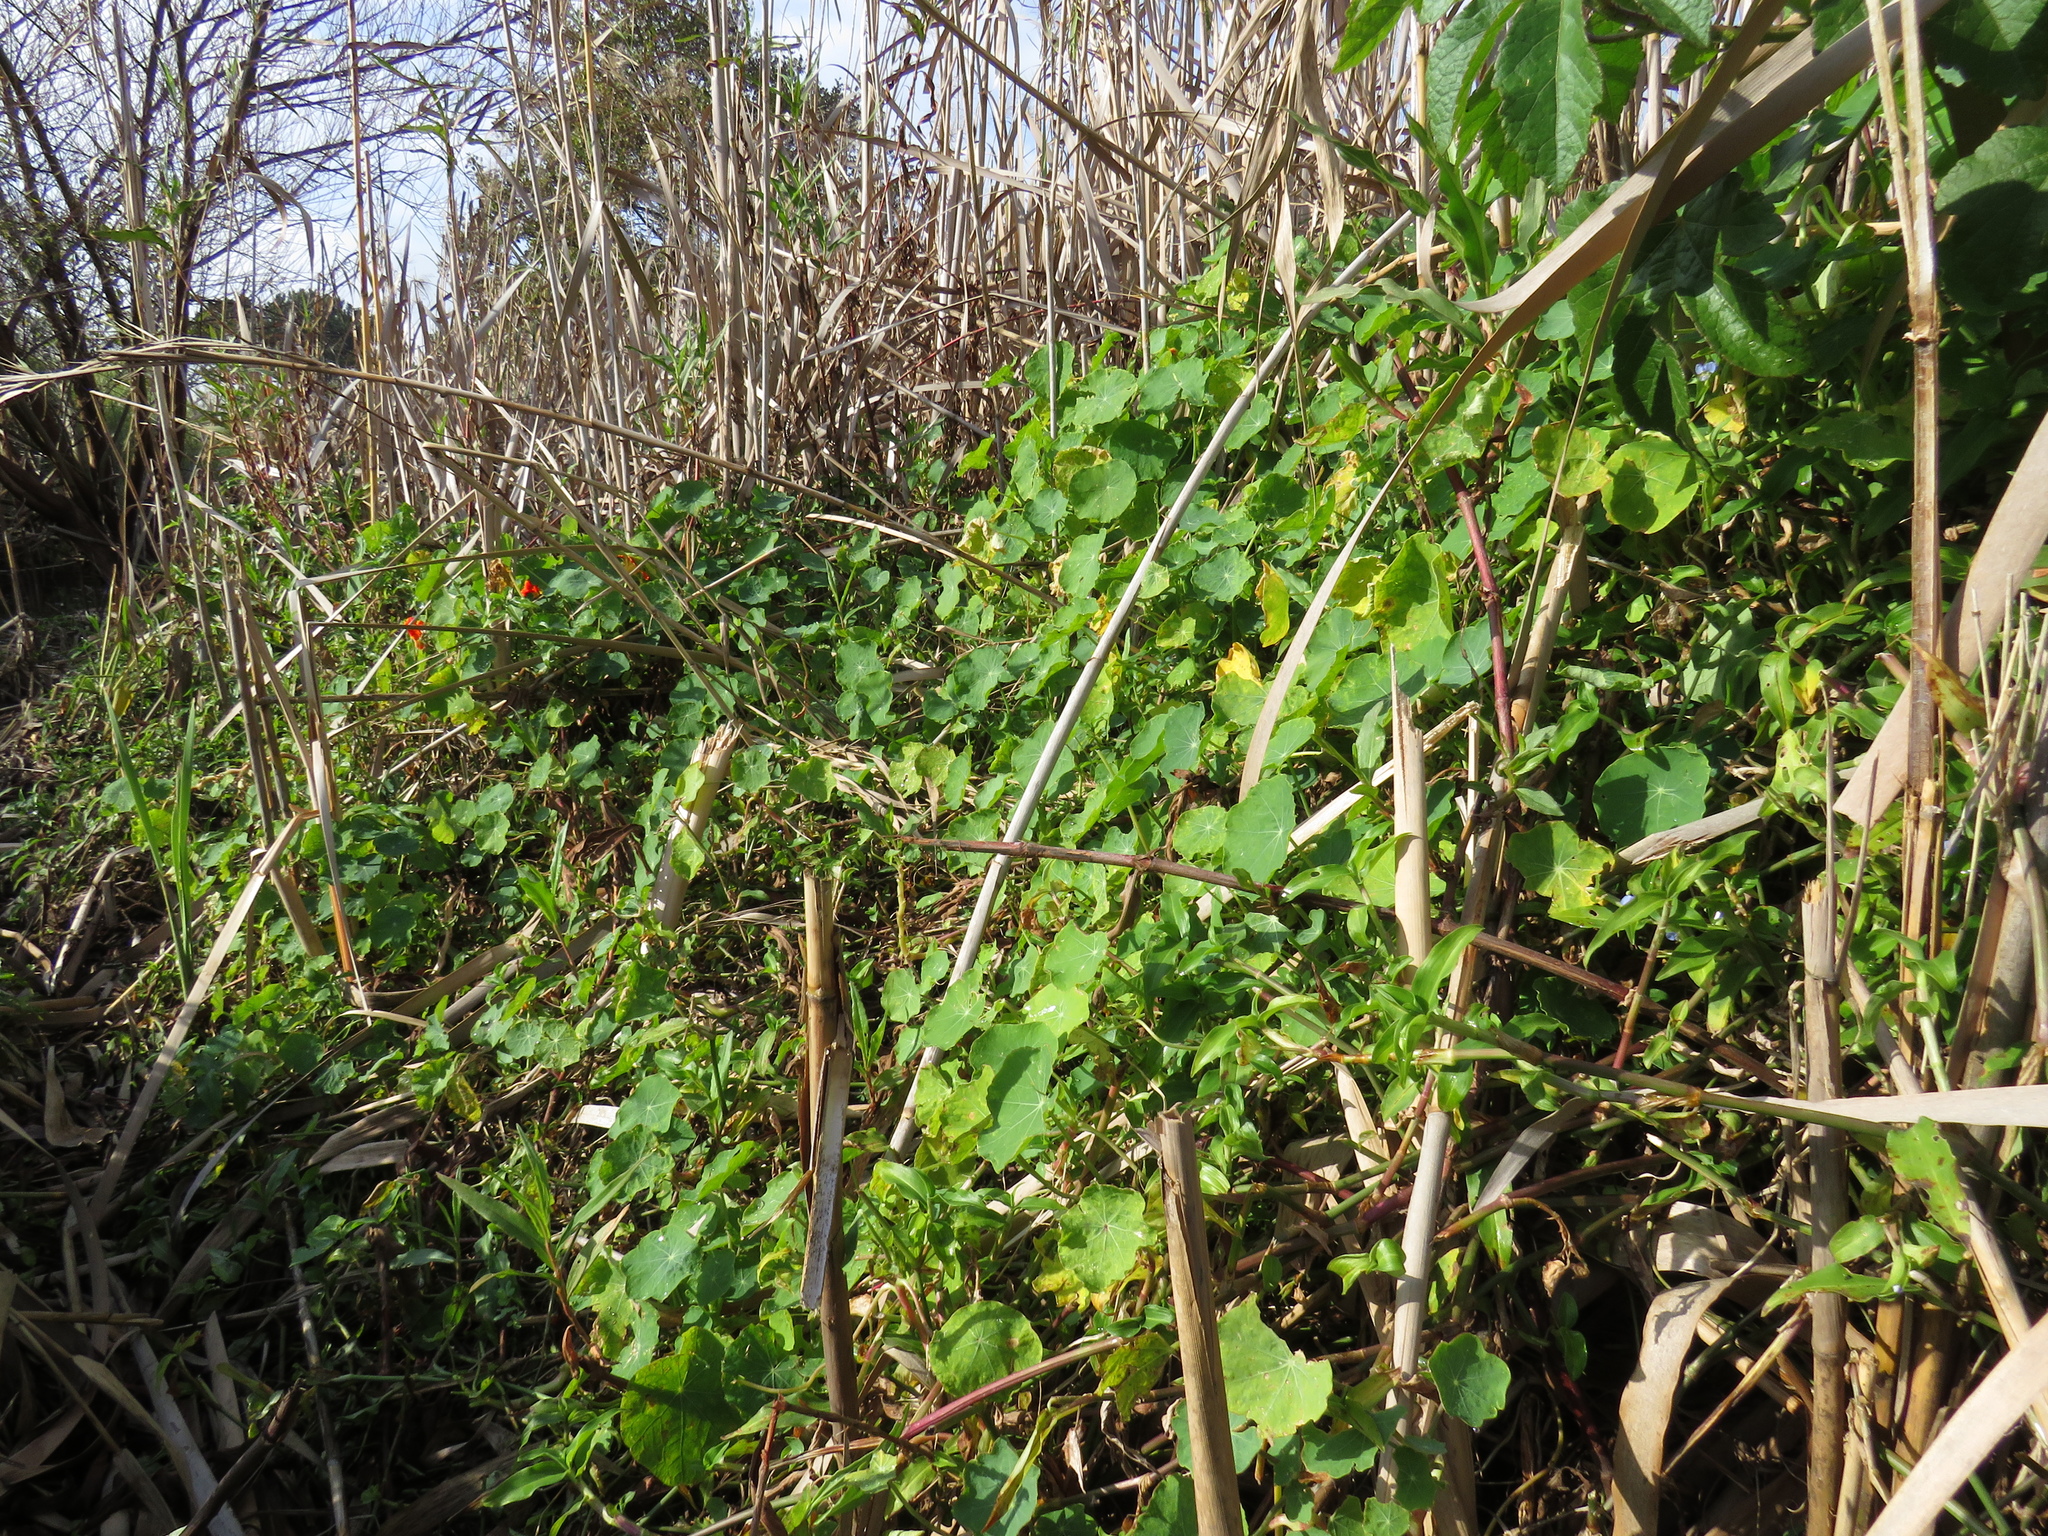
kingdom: Plantae
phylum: Tracheophyta
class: Liliopsida
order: Commelinales
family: Commelinaceae
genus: Commelina
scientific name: Commelina diffusa
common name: Climbing dayflower
